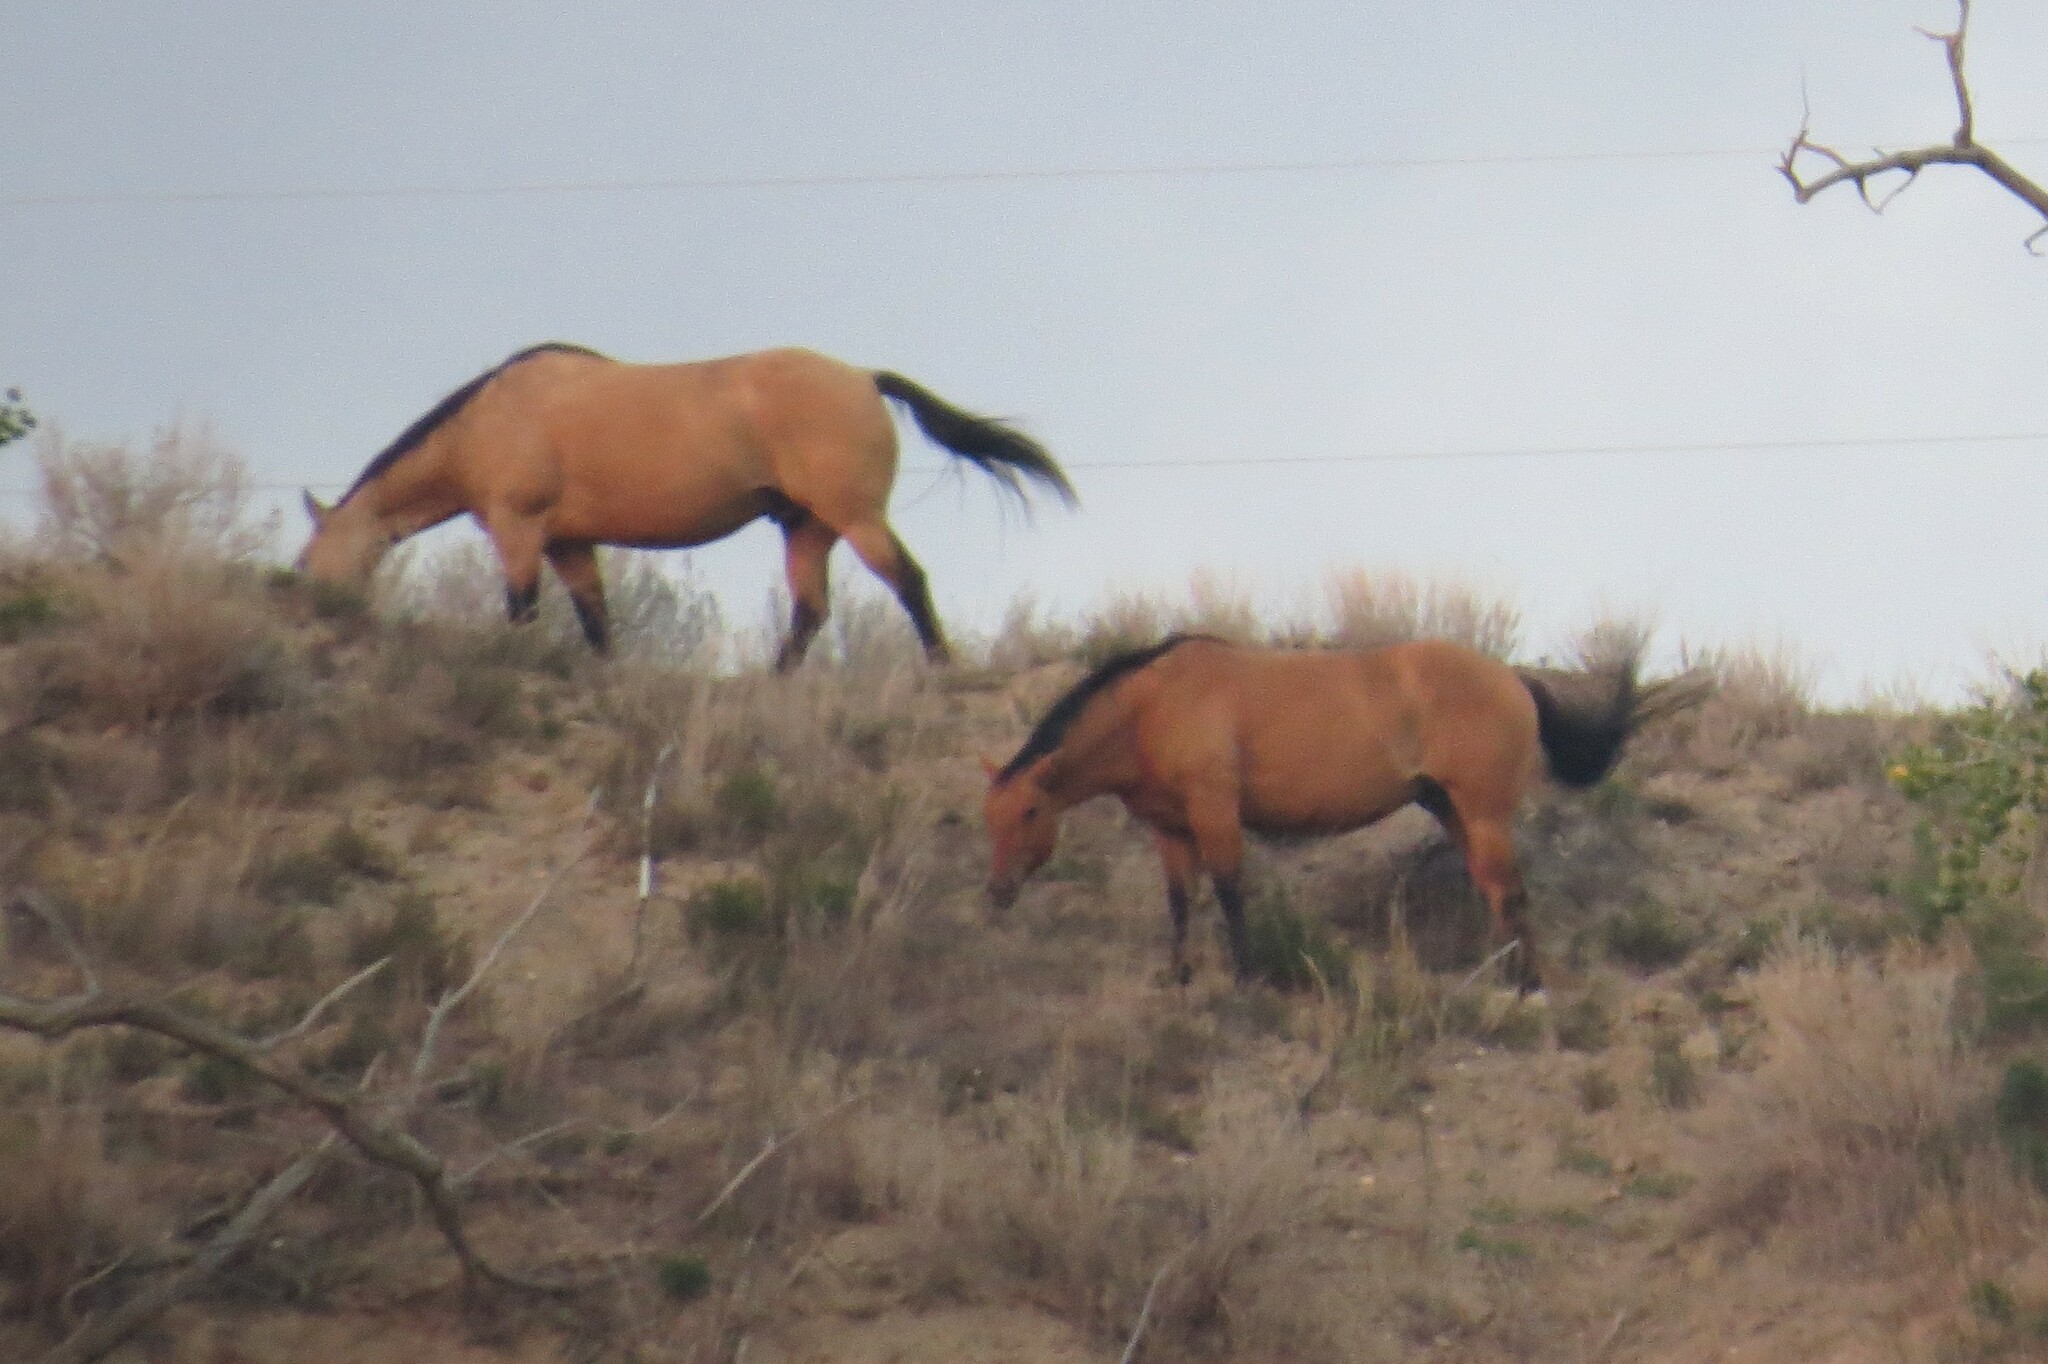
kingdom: Animalia
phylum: Chordata
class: Mammalia
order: Perissodactyla
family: Equidae
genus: Equus
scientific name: Equus caballus
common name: Horse
